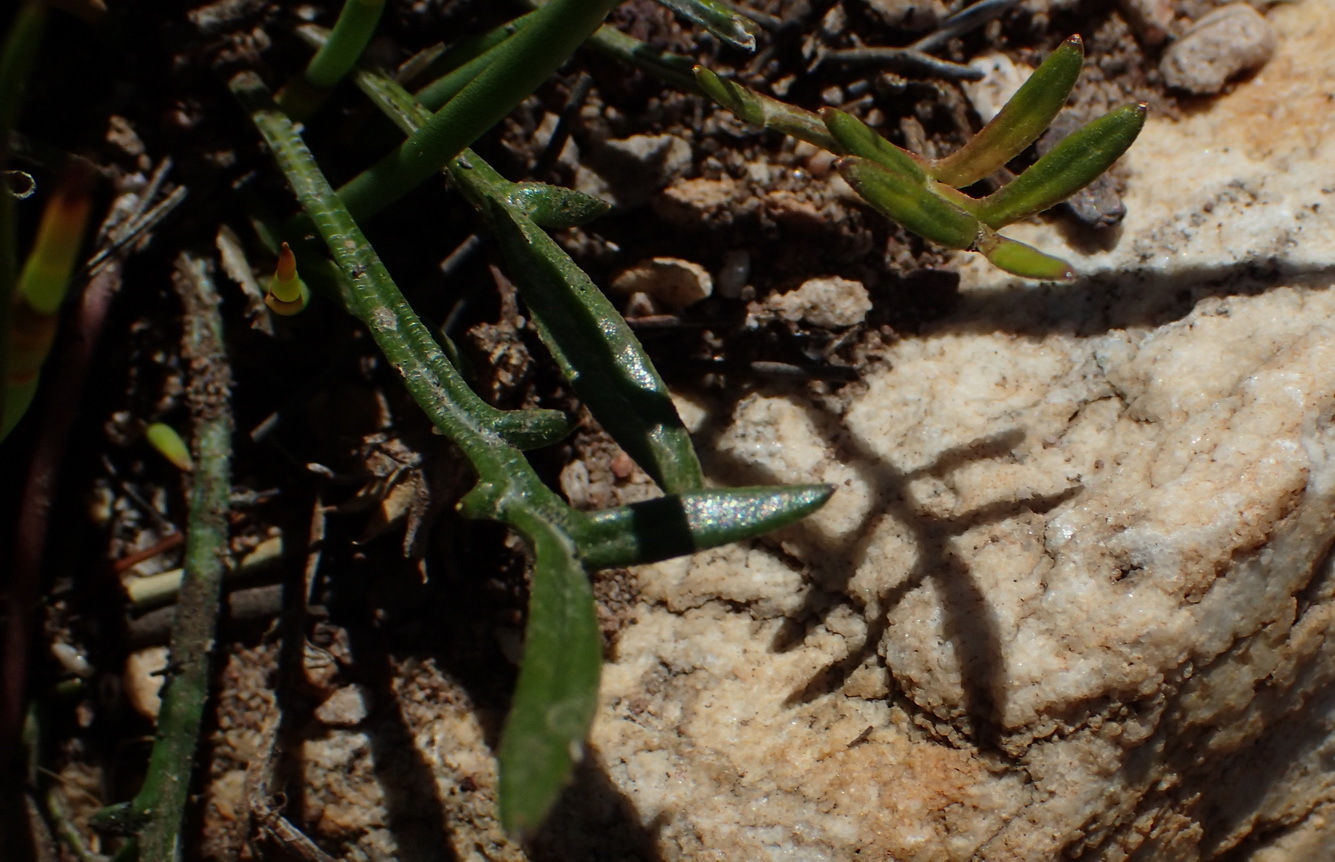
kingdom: Plantae
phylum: Tracheophyta
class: Magnoliopsida
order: Asterales
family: Asteraceae
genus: Gazania
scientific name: Gazania krebsiana
